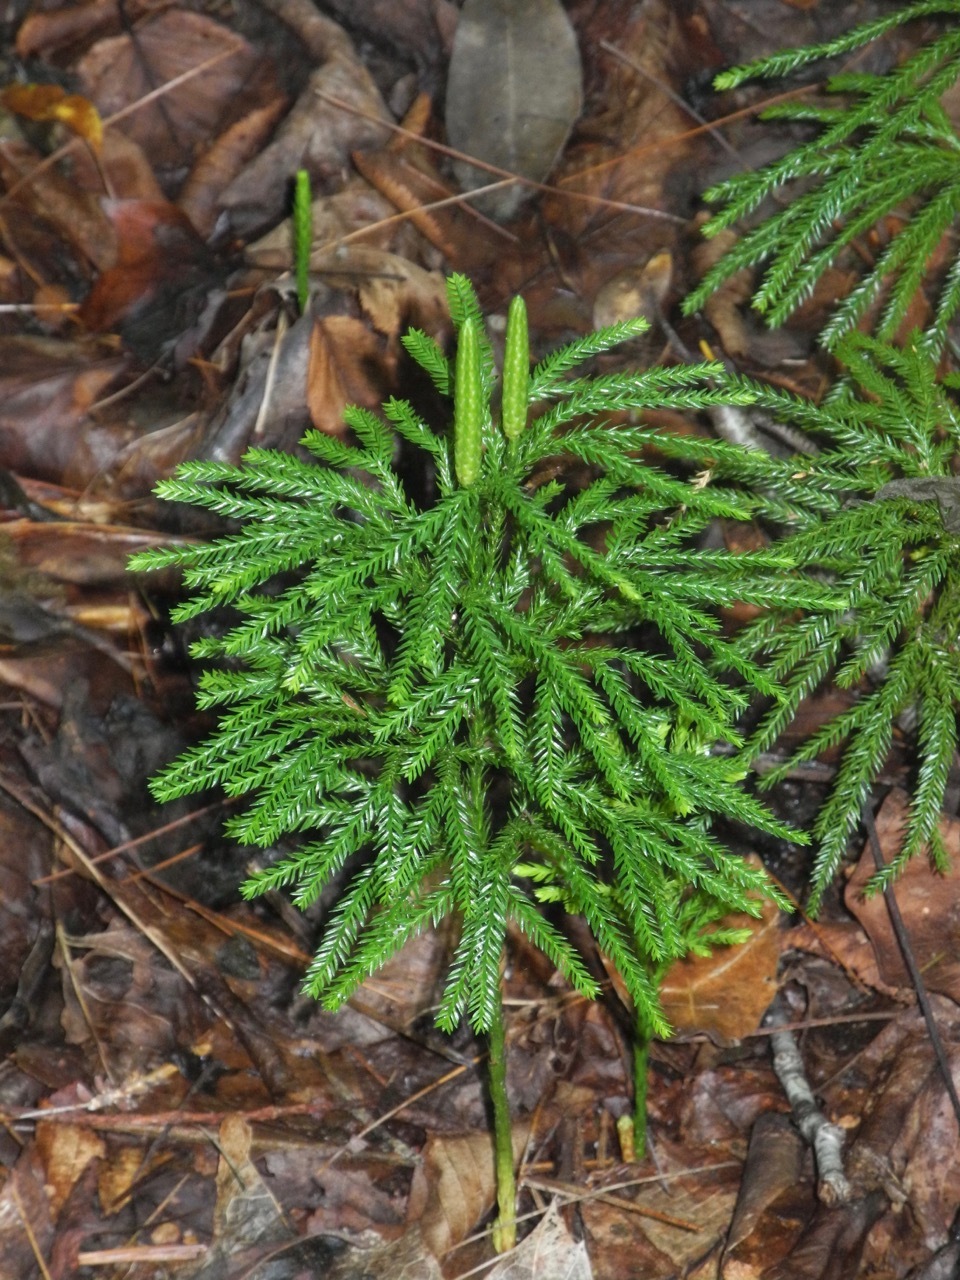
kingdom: Plantae
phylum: Tracheophyta
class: Lycopodiopsida
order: Lycopodiales
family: Lycopodiaceae
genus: Dendrolycopodium
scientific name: Dendrolycopodium obscurum
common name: Common ground-pine
